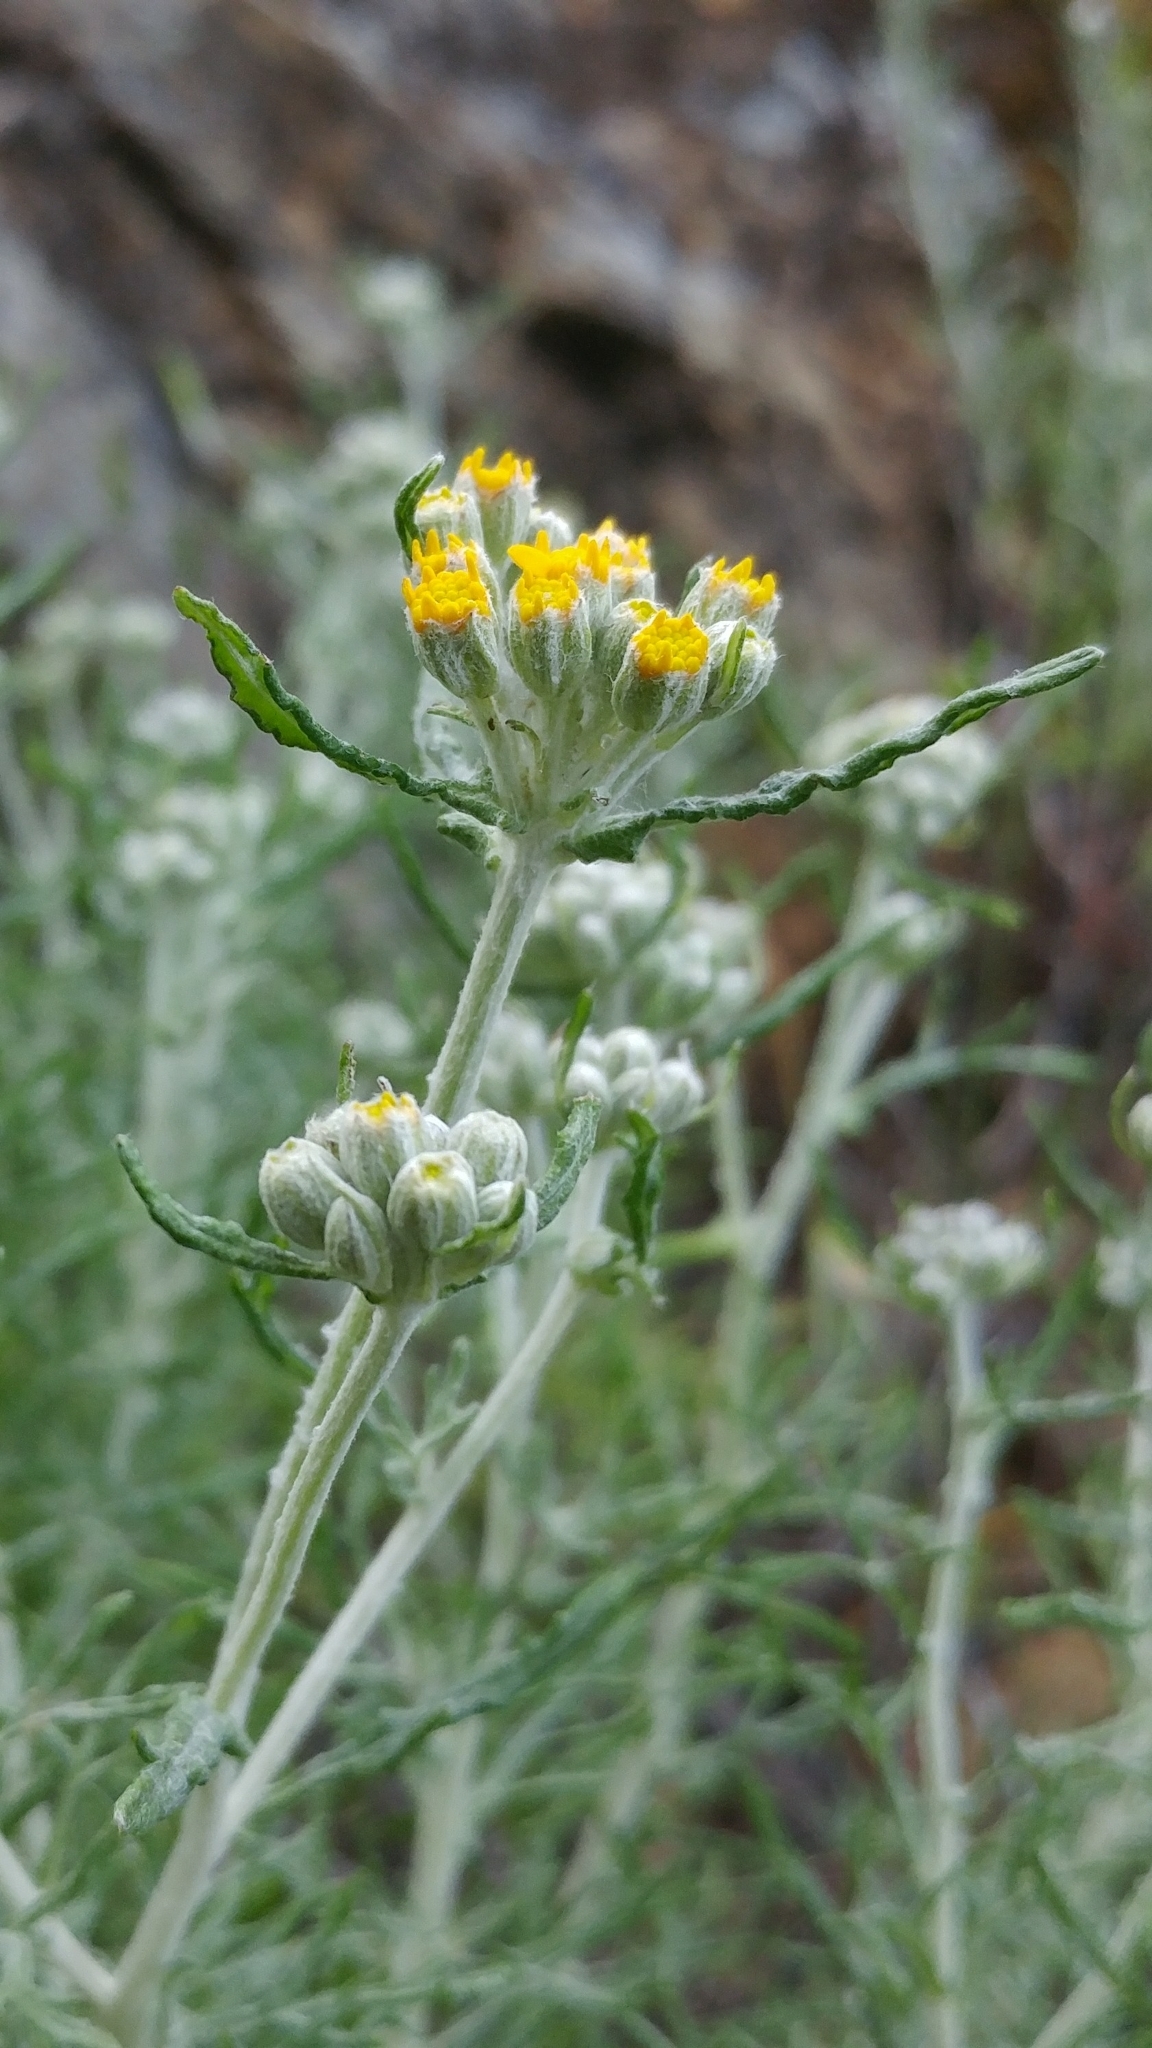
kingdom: Plantae
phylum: Tracheophyta
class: Magnoliopsida
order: Asterales
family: Asteraceae
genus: Eriophyllum
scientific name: Eriophyllum confertiflorum
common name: Golden-yarrow
